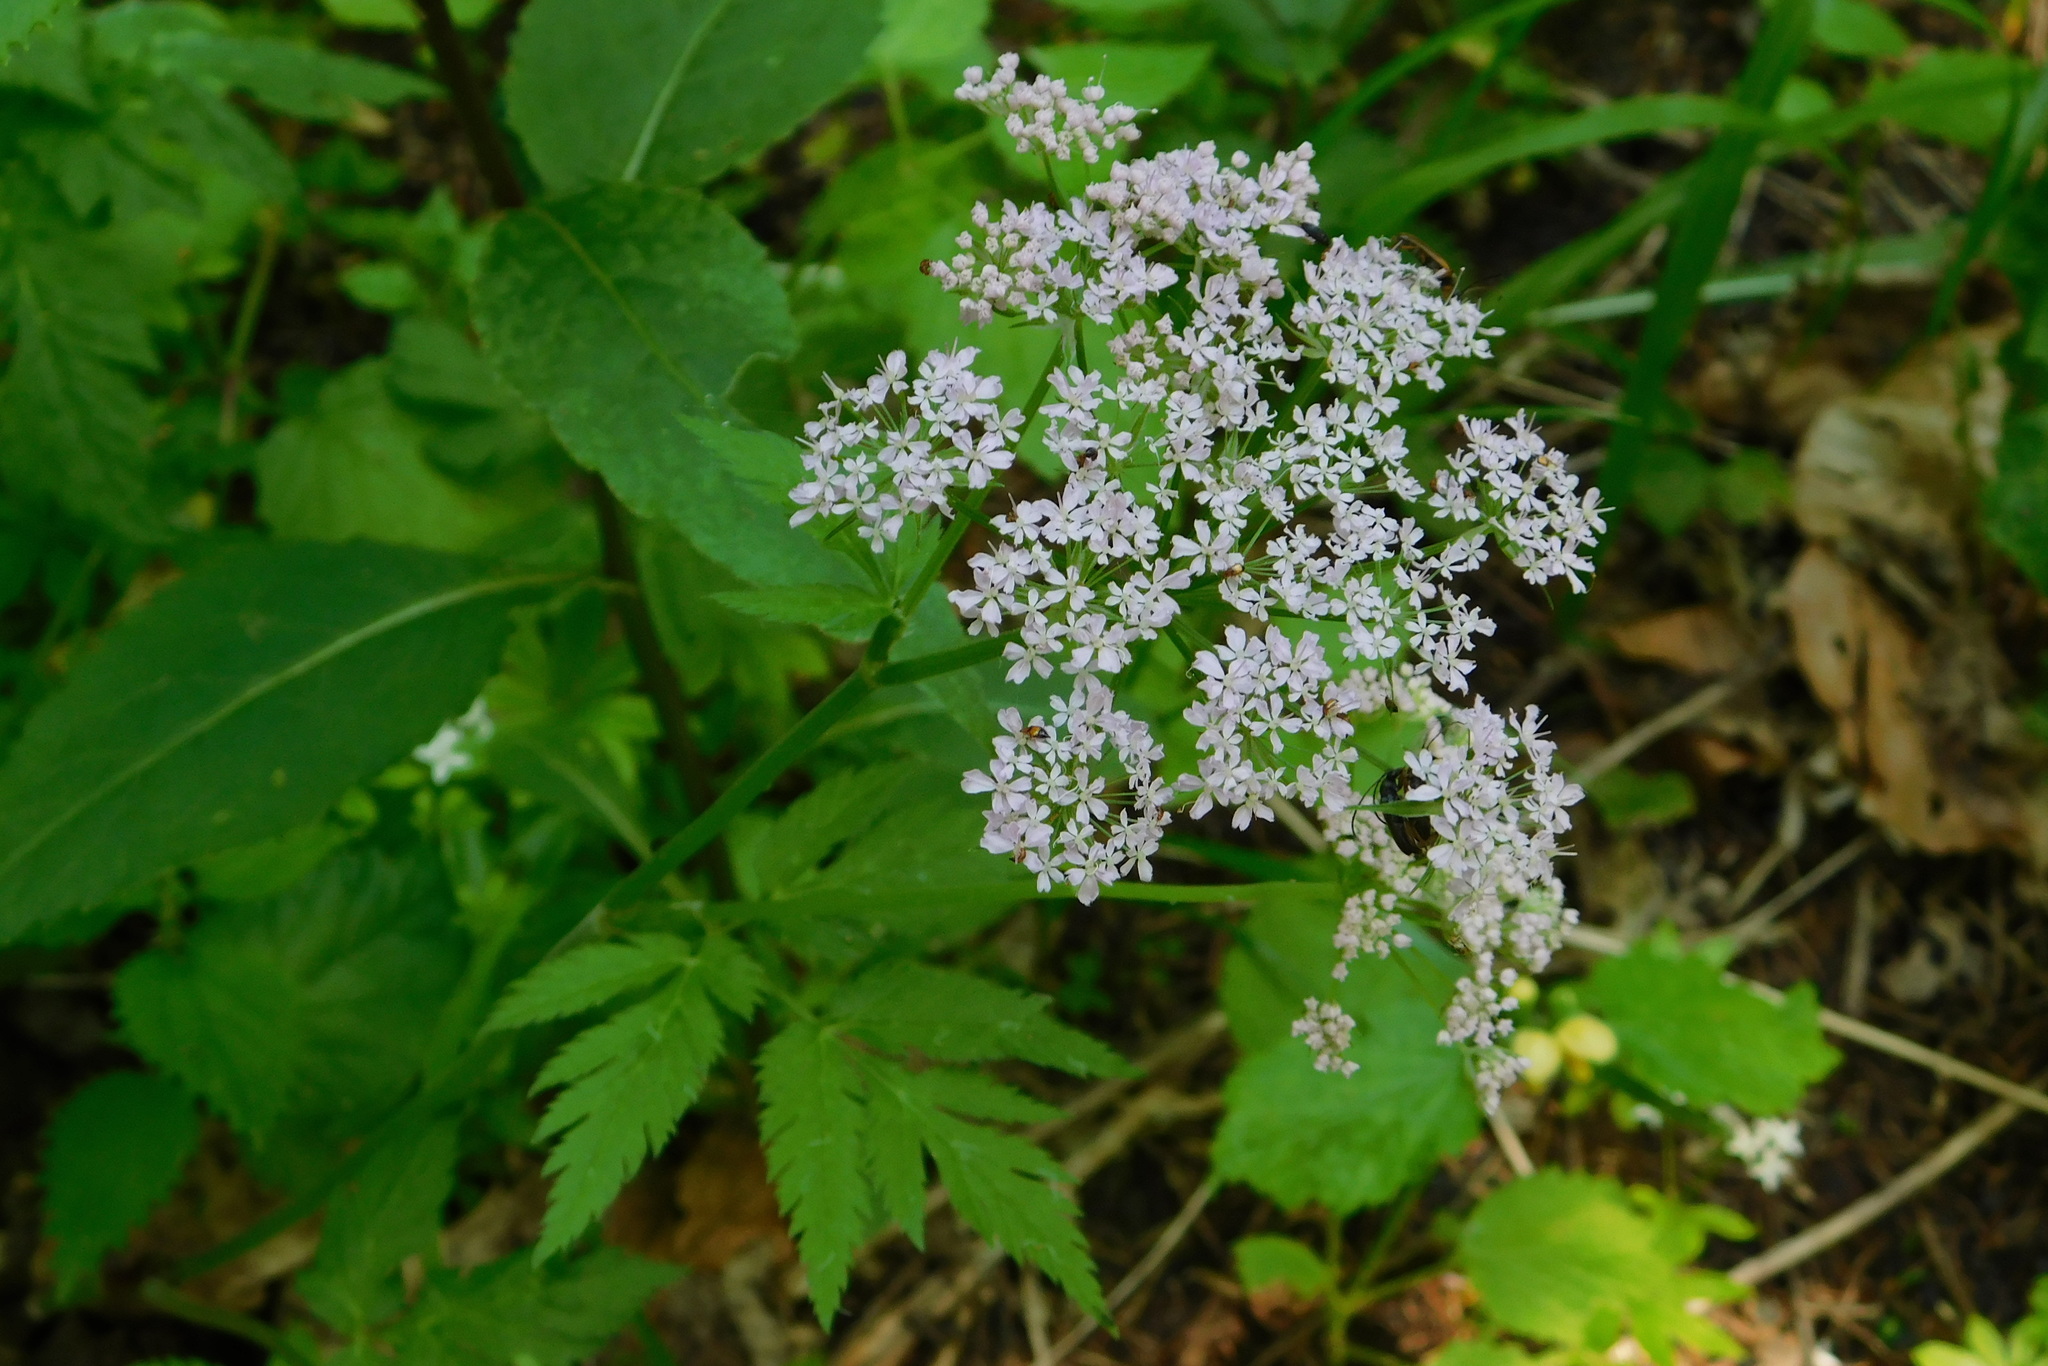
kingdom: Plantae
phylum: Tracheophyta
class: Magnoliopsida
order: Apiales
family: Apiaceae
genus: Chaerophyllum
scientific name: Chaerophyllum hirsutum
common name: Hairy chervil
